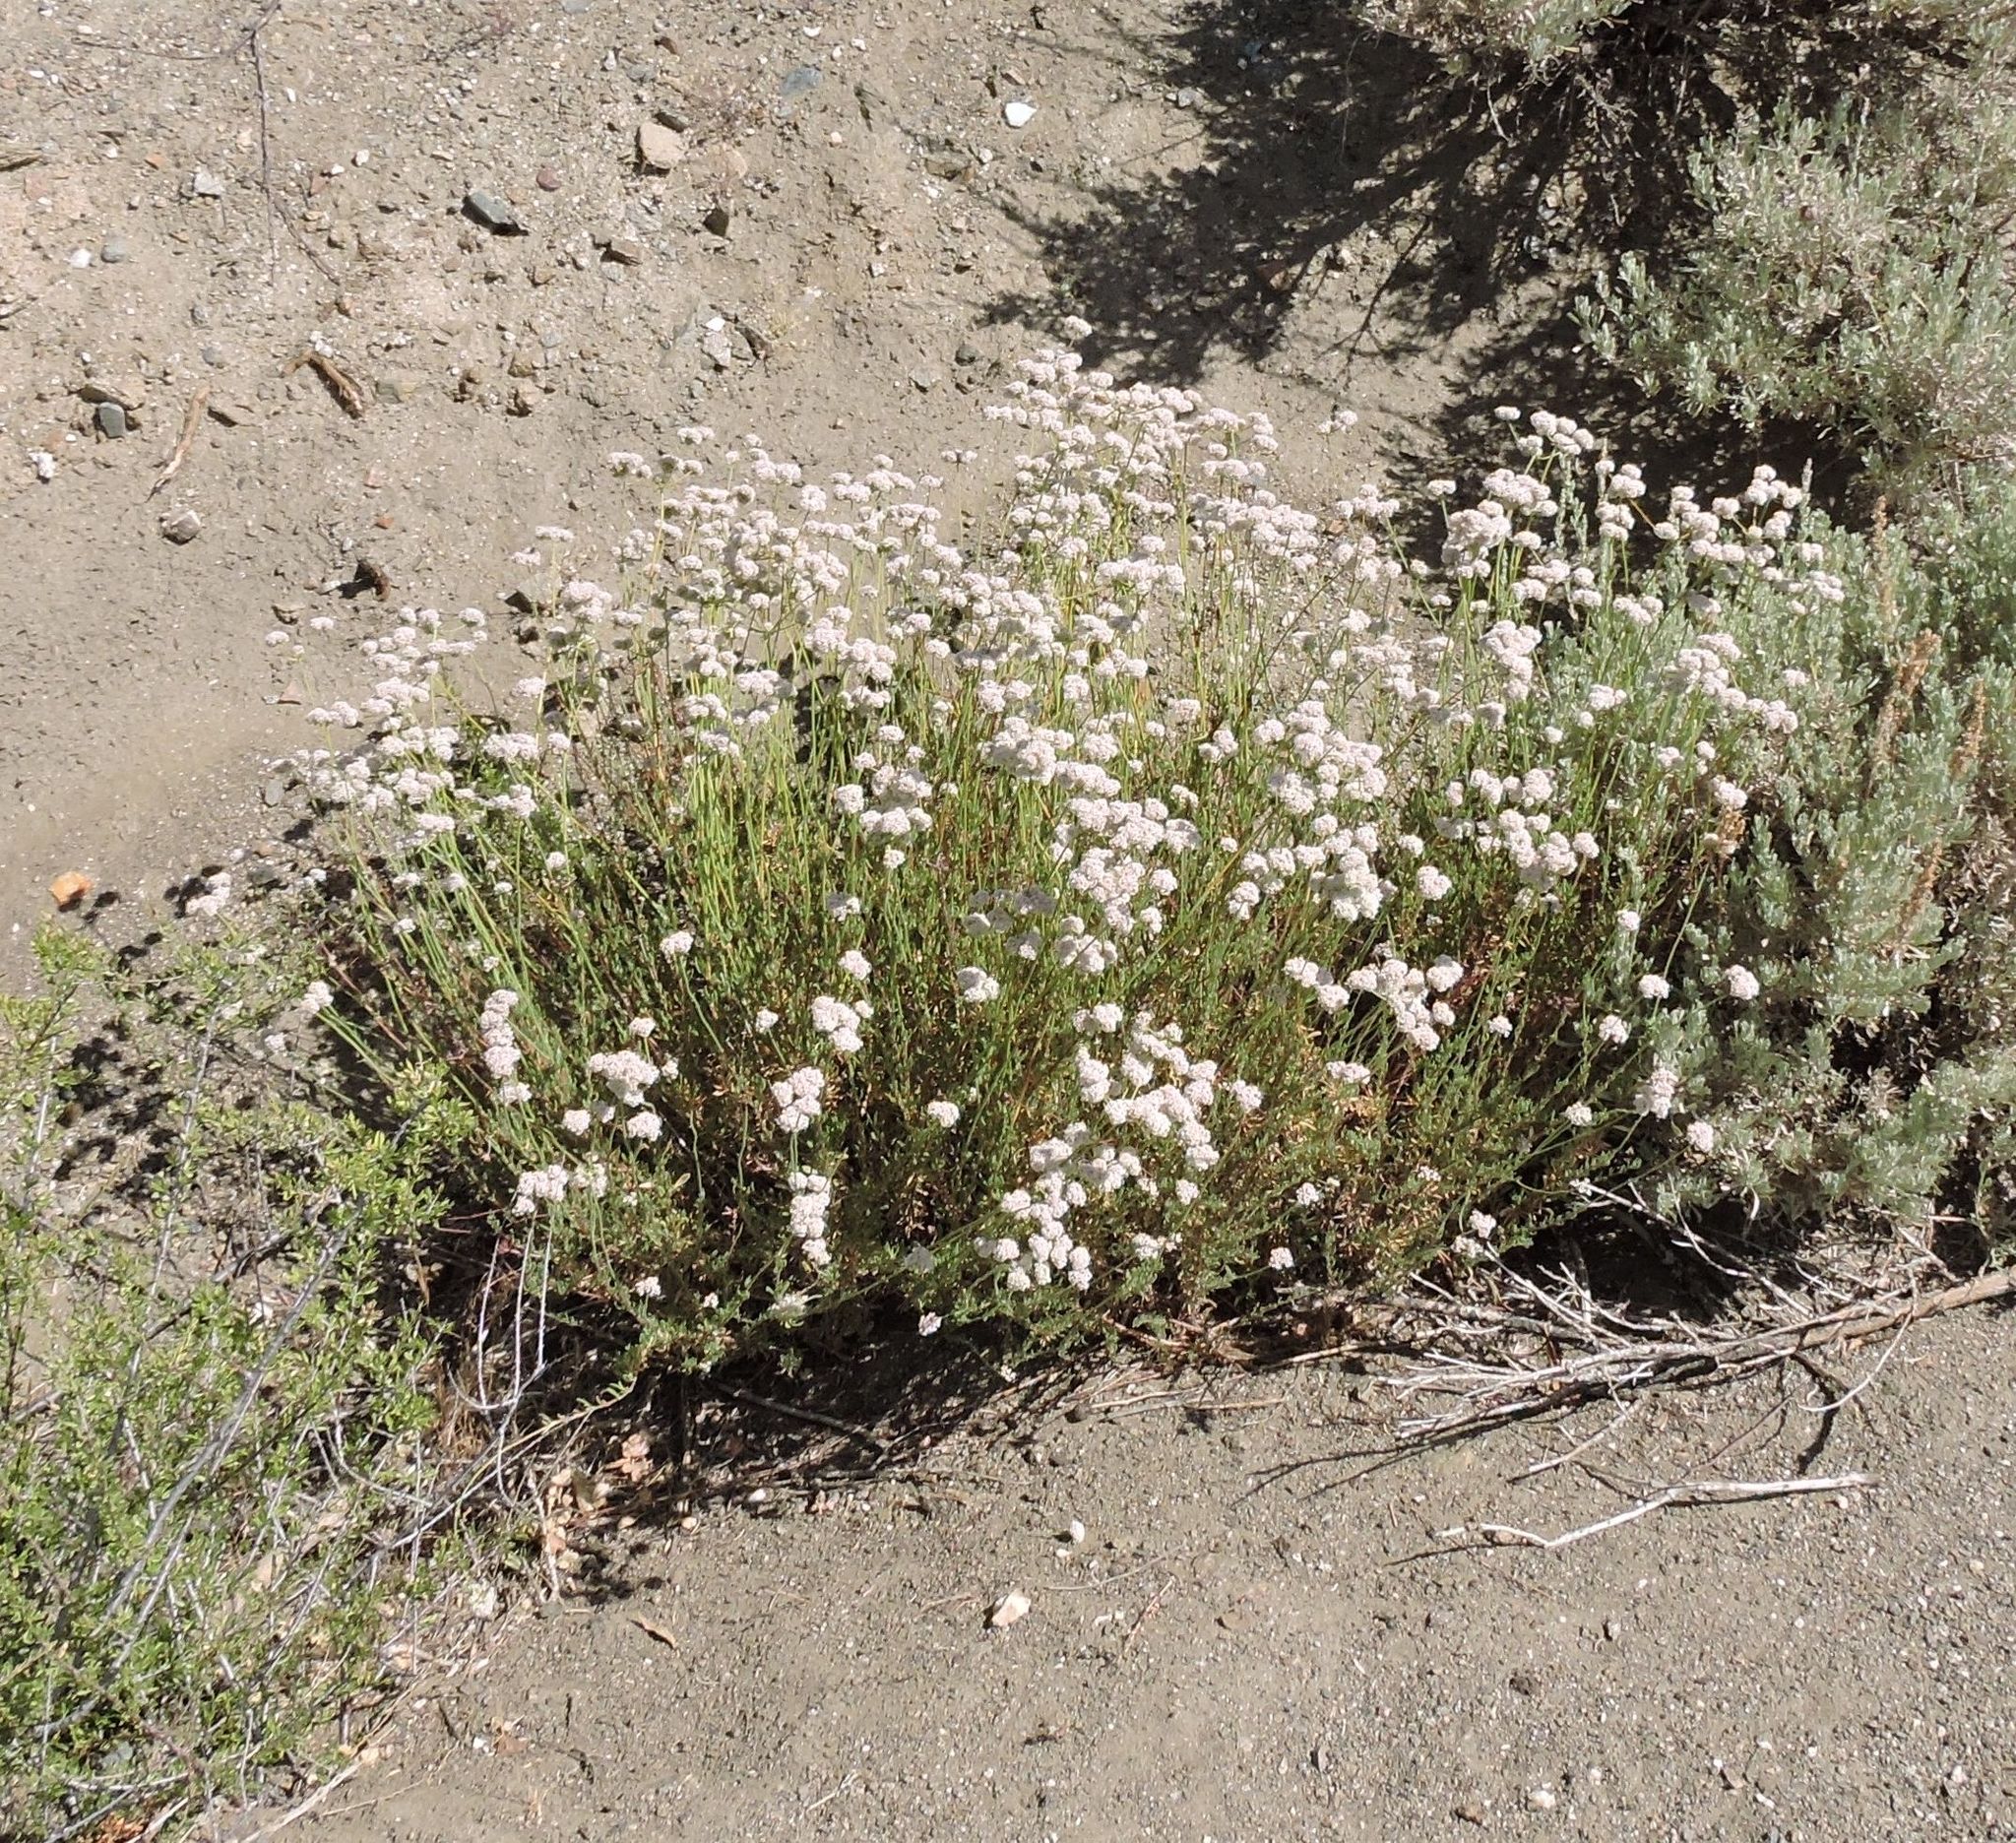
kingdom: Plantae
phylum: Tracheophyta
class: Magnoliopsida
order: Caryophyllales
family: Polygonaceae
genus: Eriogonum
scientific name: Eriogonum fasciculatum
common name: California wild buckwheat
